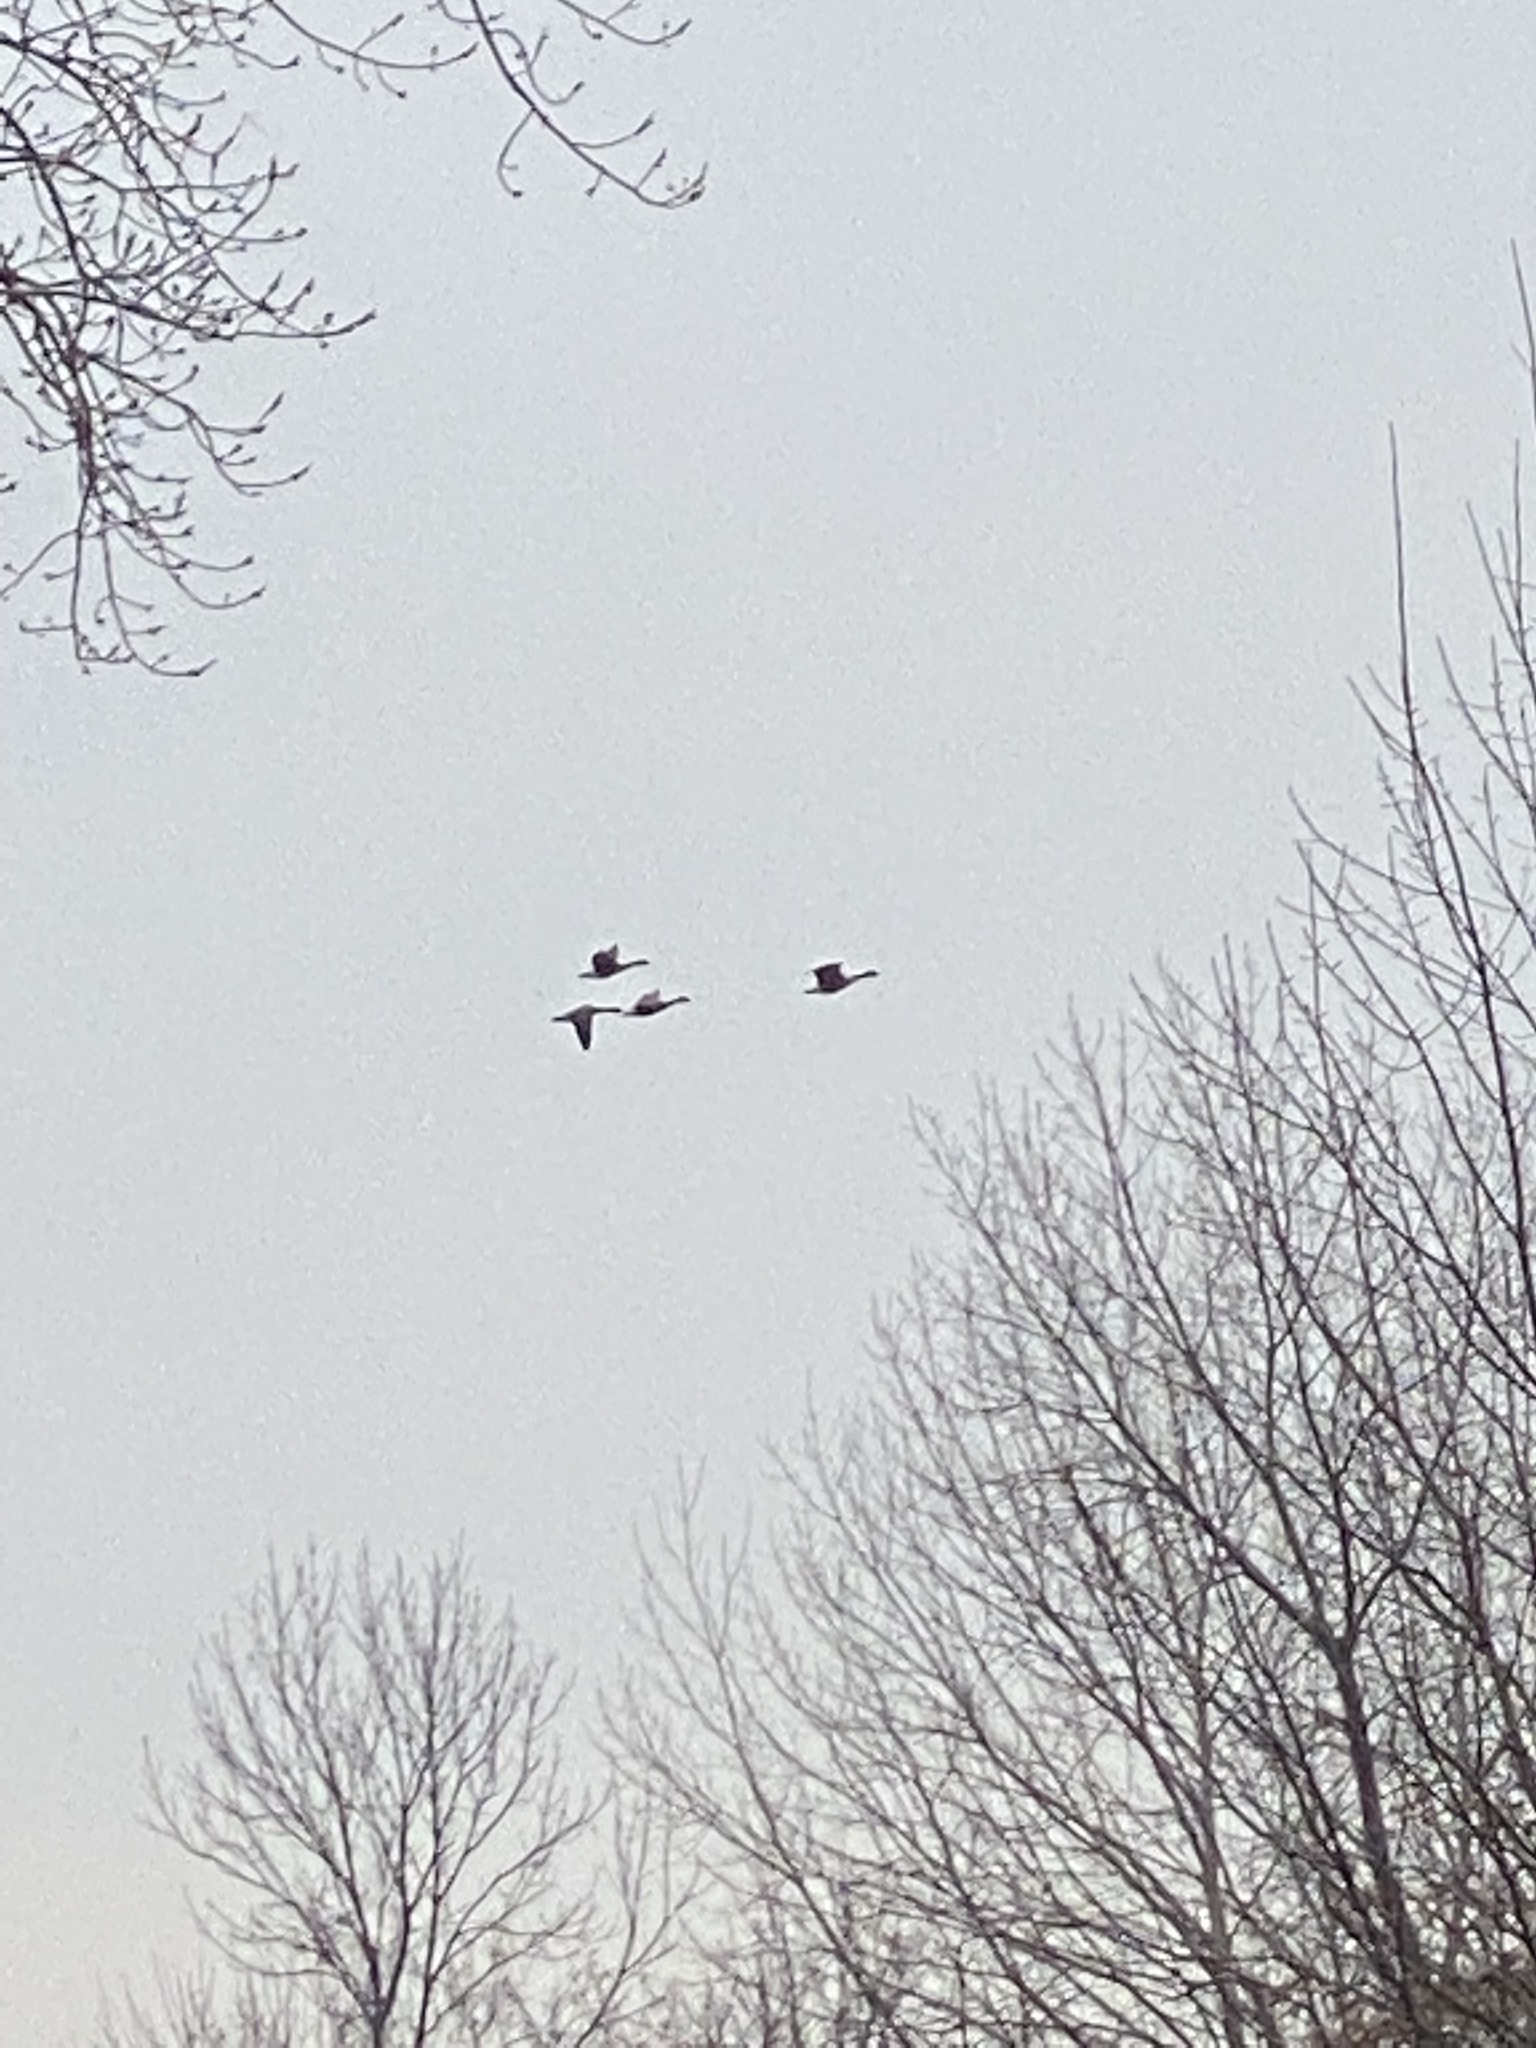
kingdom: Animalia
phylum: Chordata
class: Aves
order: Anseriformes
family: Anatidae
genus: Branta
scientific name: Branta canadensis
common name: Canada goose
